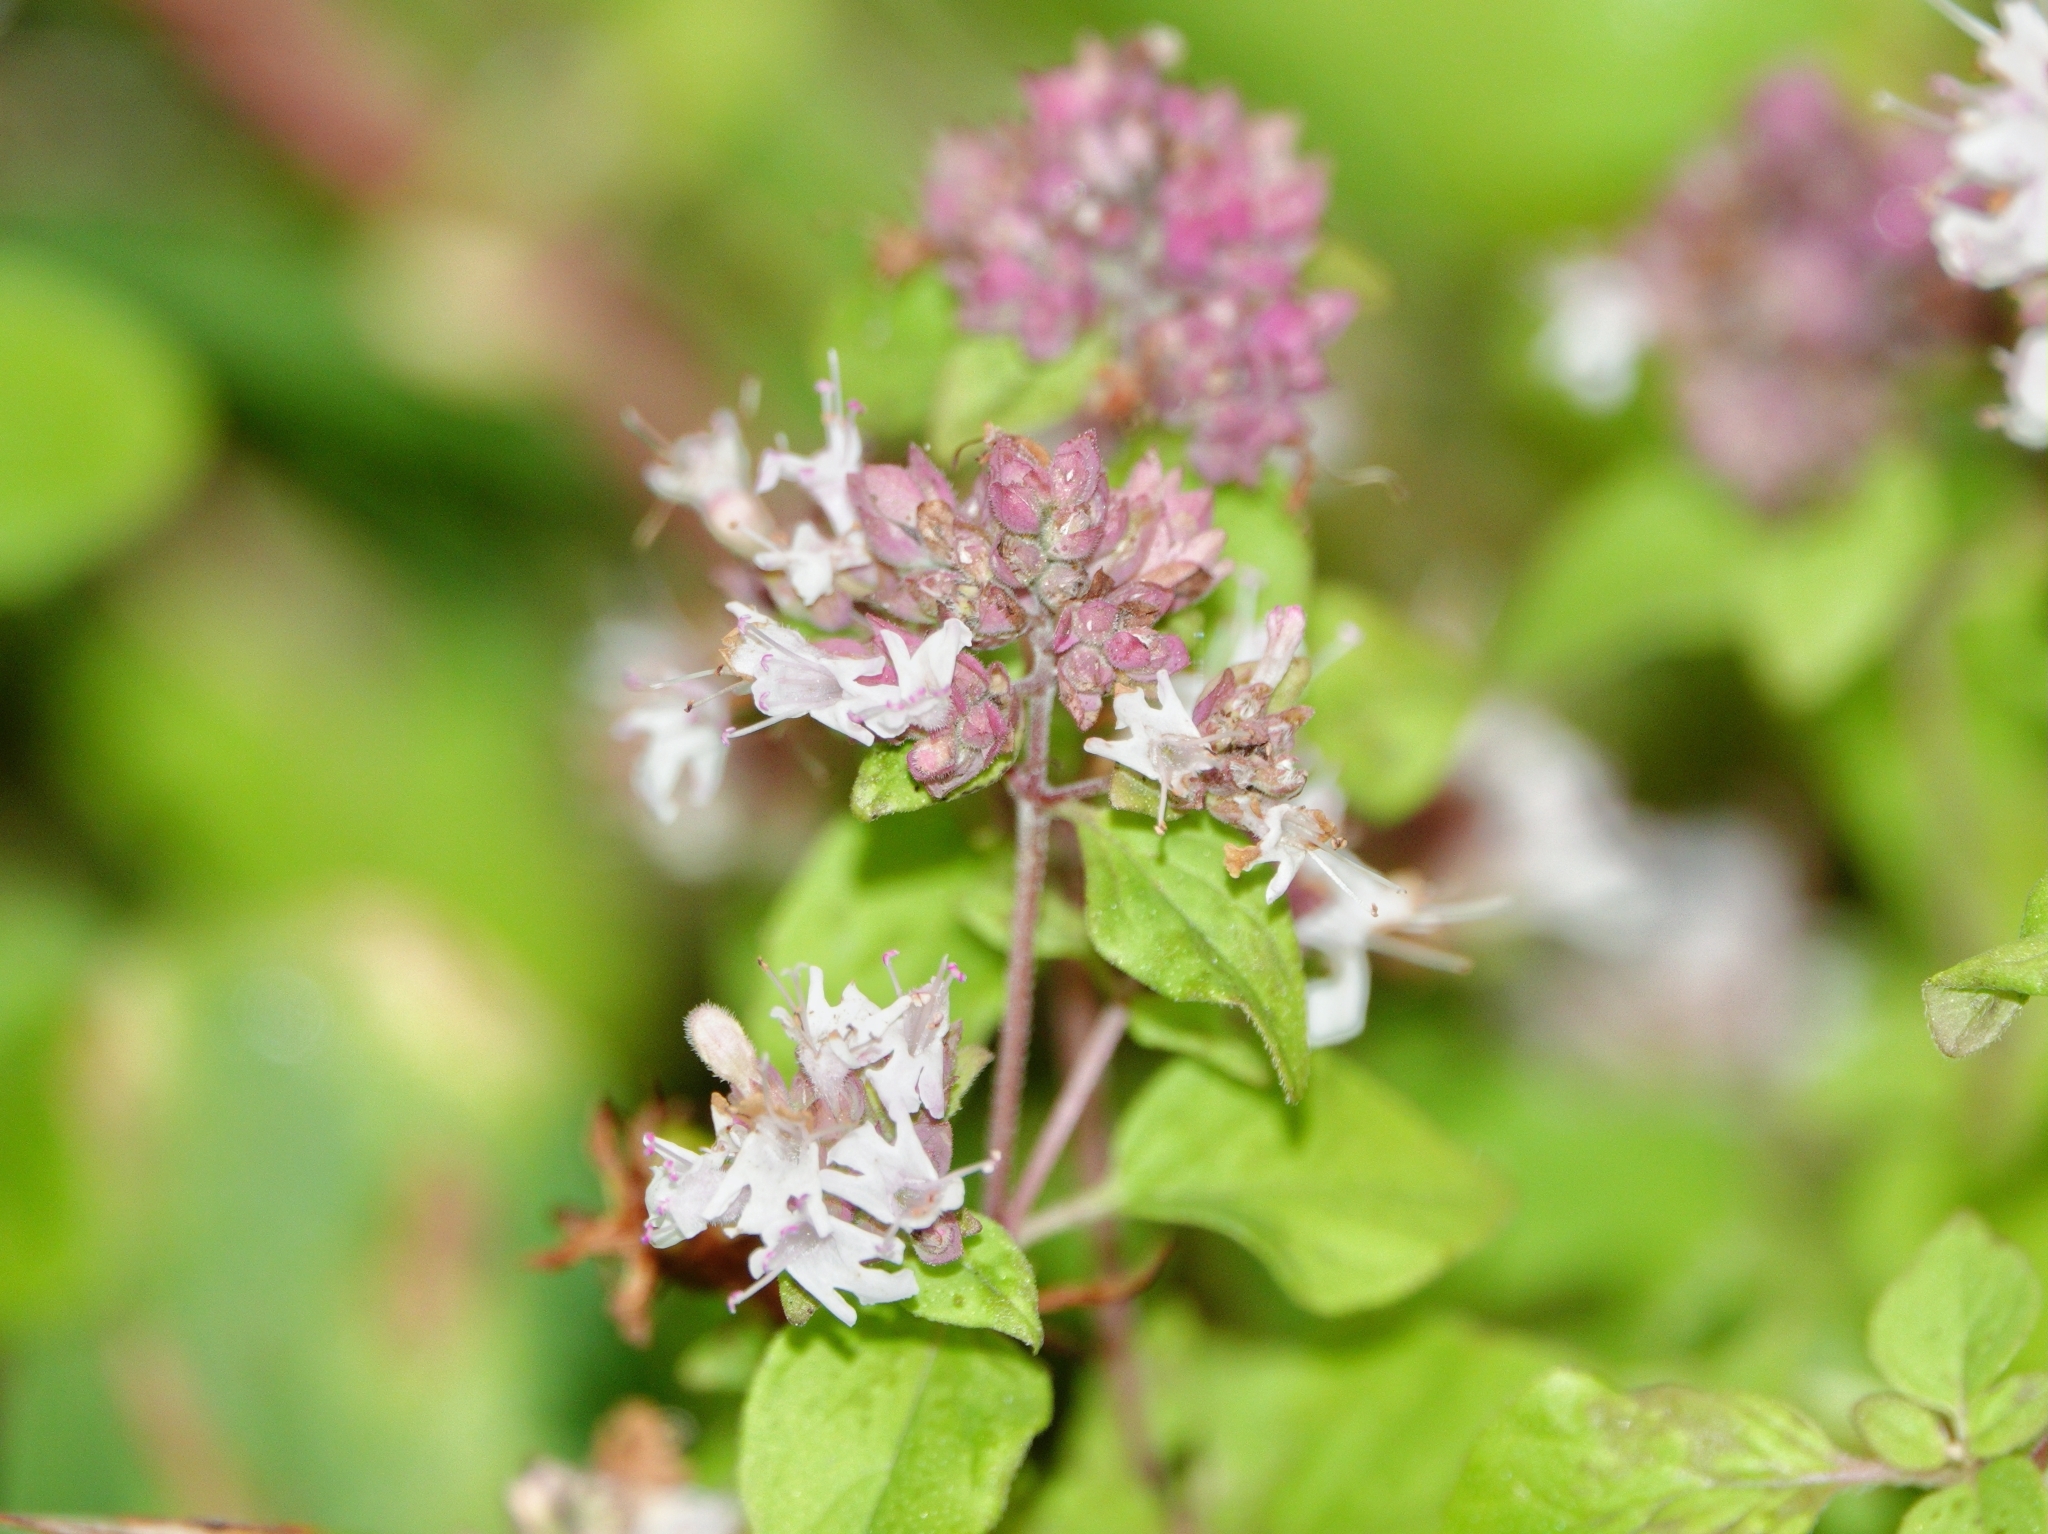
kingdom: Plantae
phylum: Tracheophyta
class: Magnoliopsida
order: Lamiales
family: Lamiaceae
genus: Origanum
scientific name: Origanum vulgare
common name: Wild marjoram
